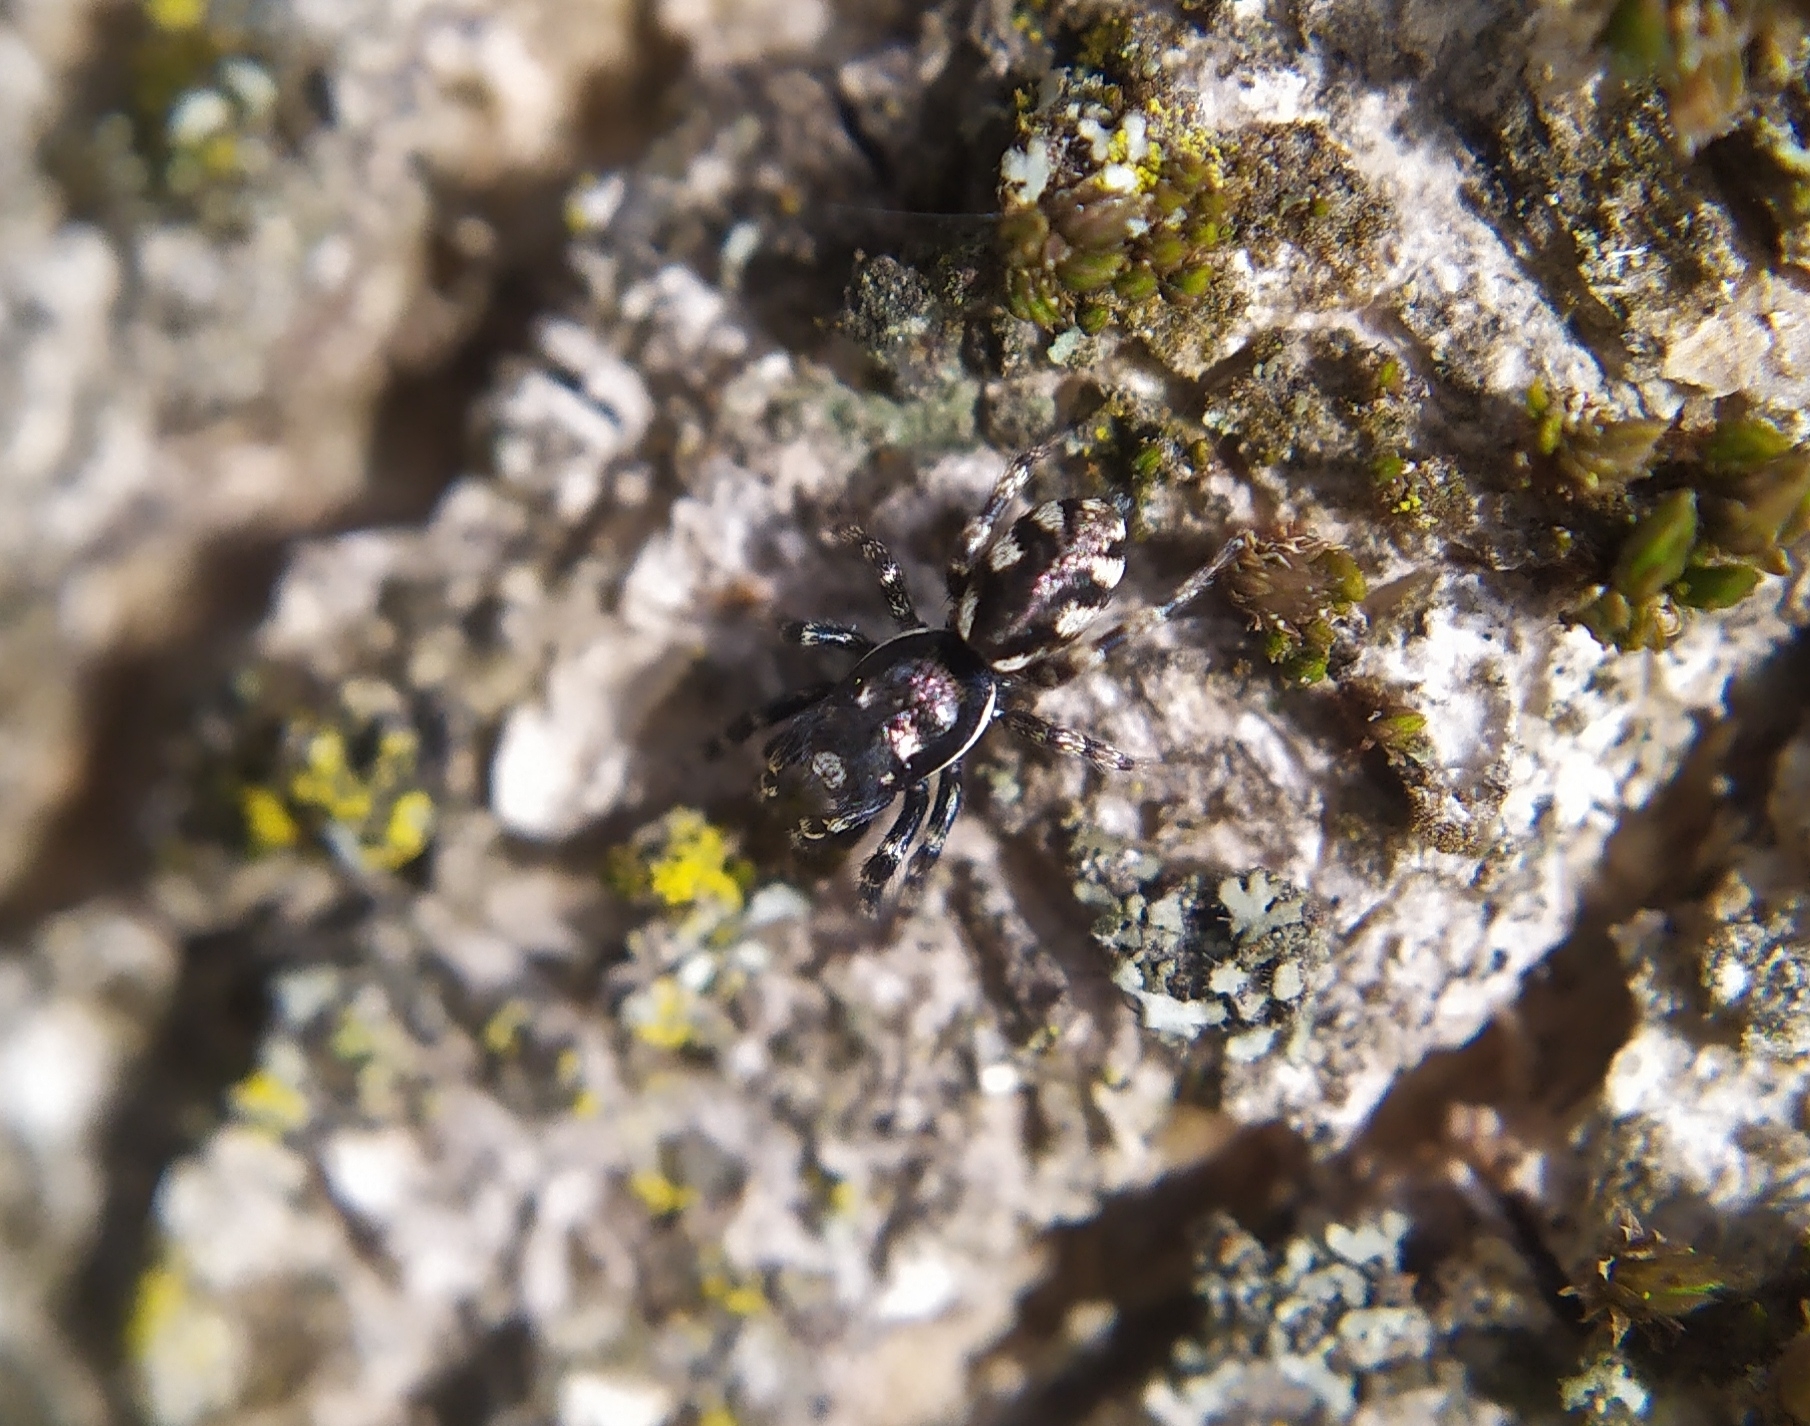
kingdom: Animalia
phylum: Arthropoda
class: Arachnida
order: Araneae
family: Salticidae
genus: Salticus
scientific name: Salticus zebraneus
